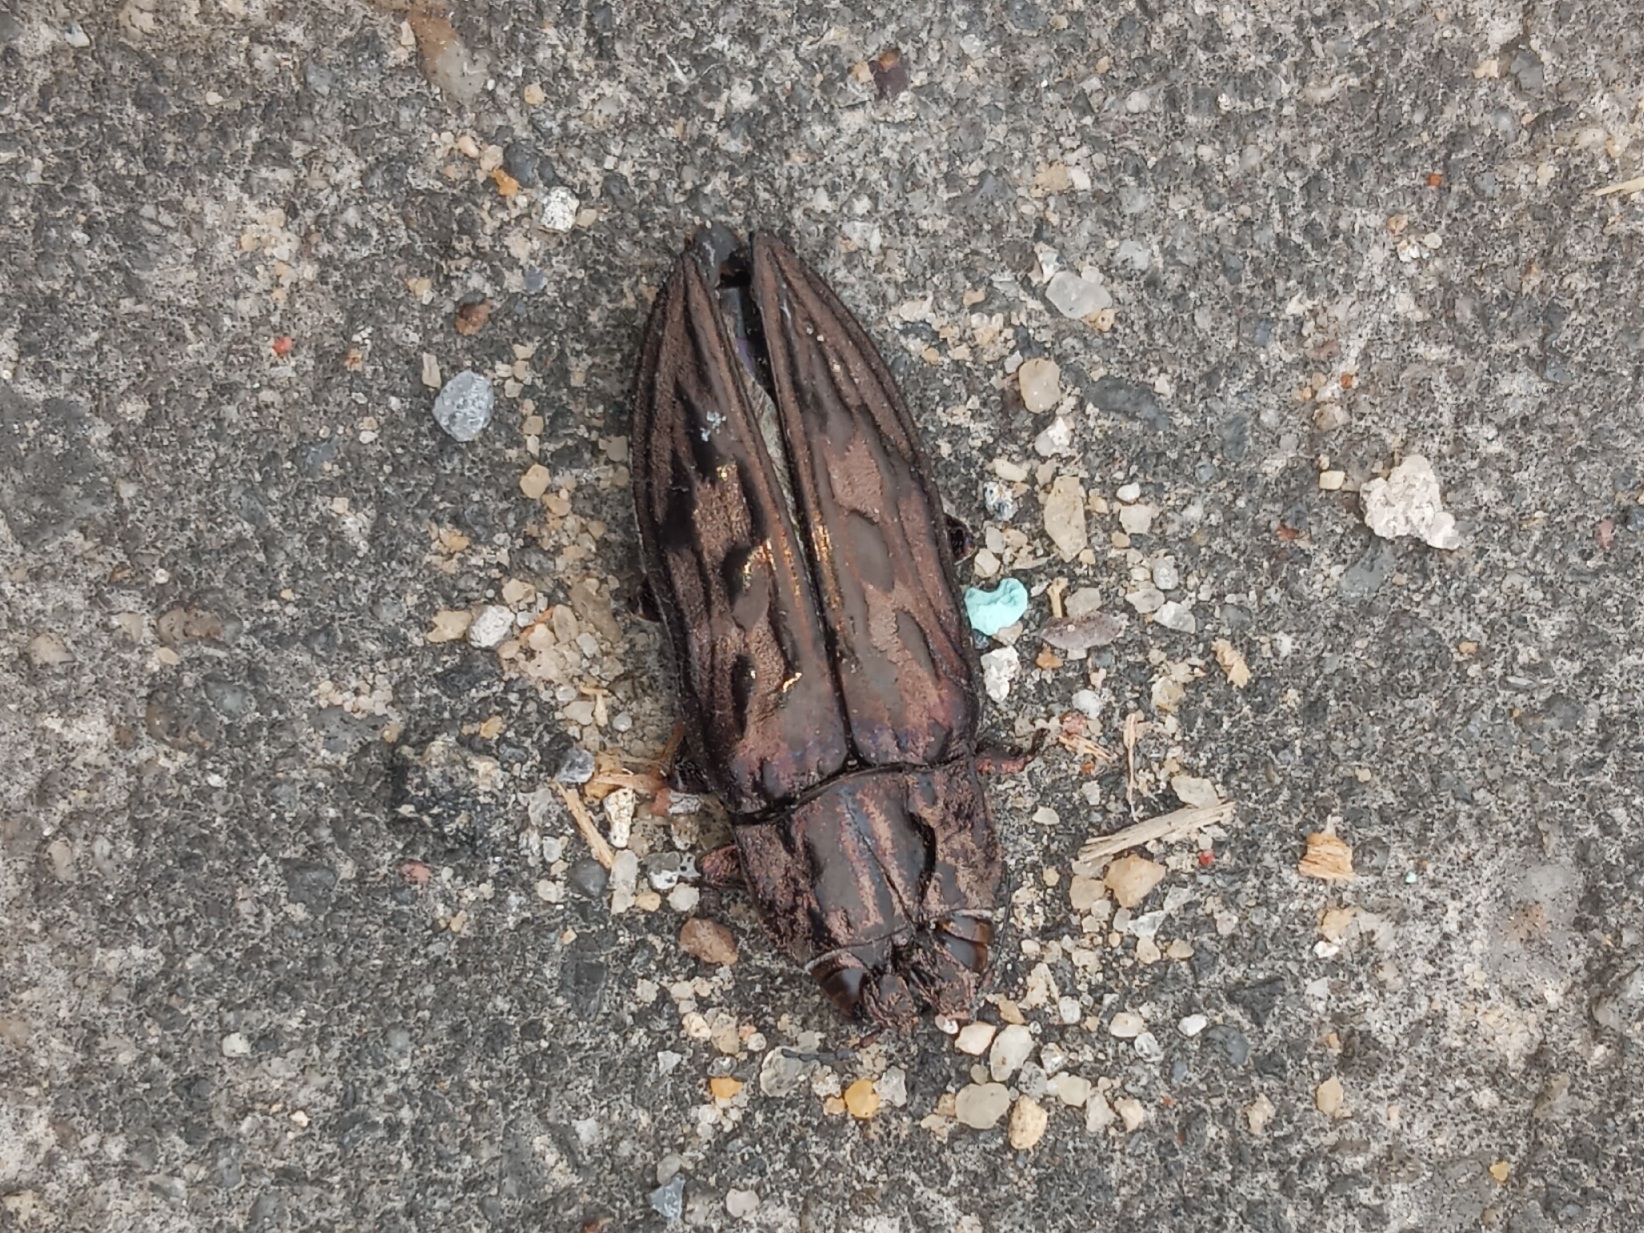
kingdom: Animalia
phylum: Arthropoda
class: Insecta
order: Coleoptera
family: Buprestidae
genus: Chalcophora
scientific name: Chalcophora virginiensis
